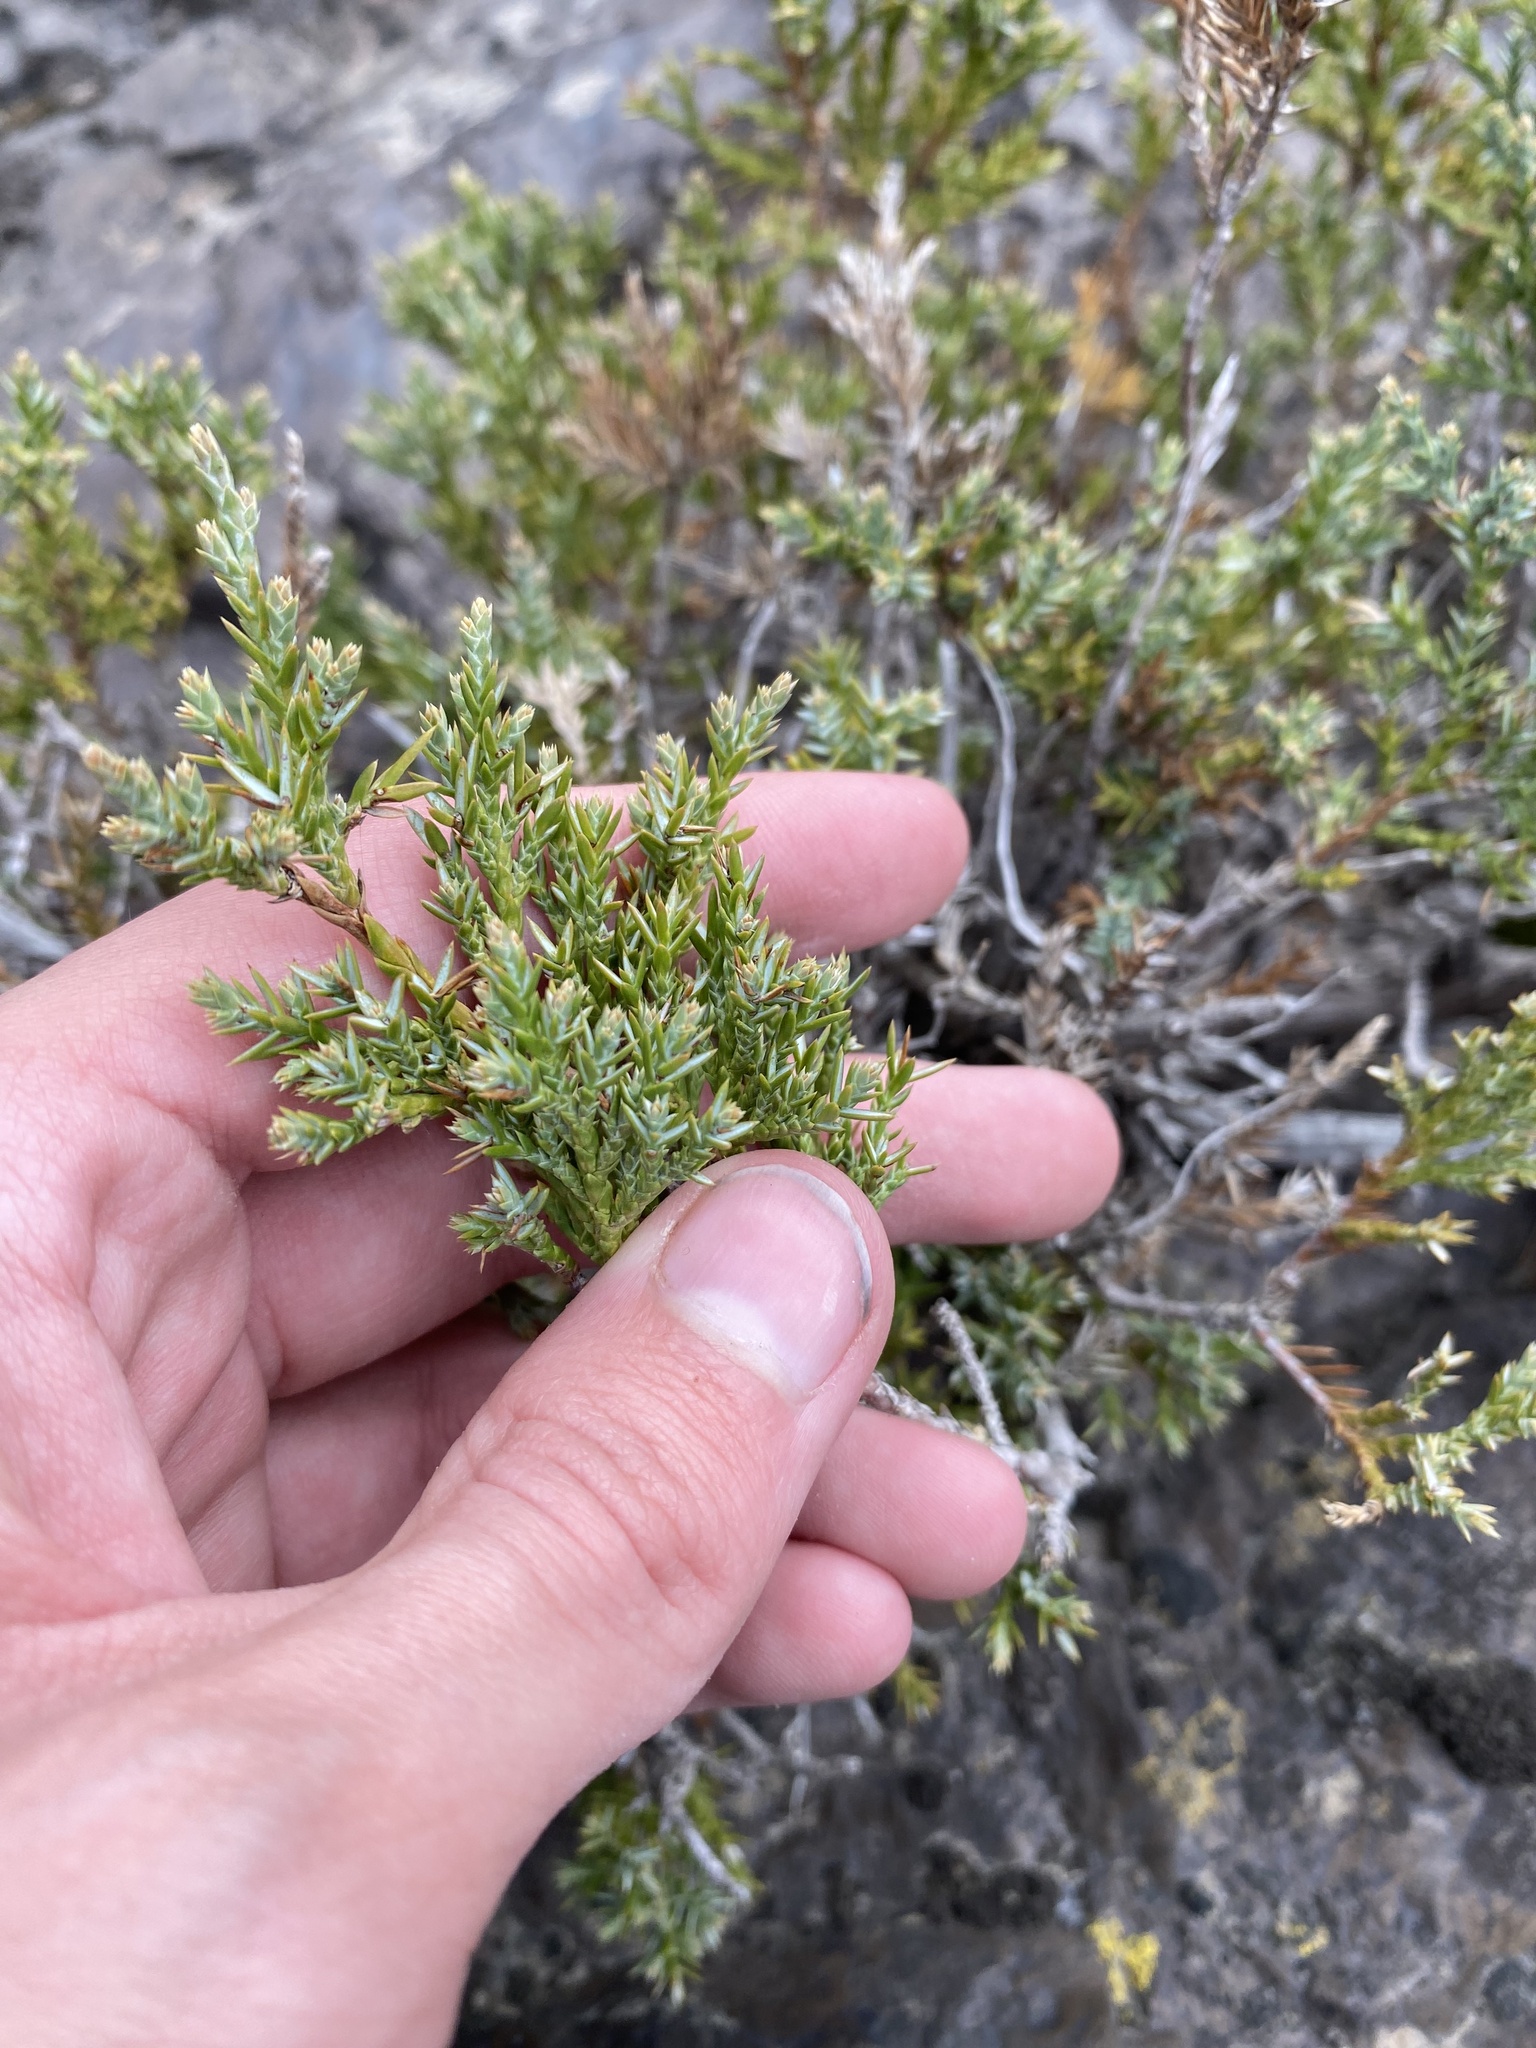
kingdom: Plantae
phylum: Tracheophyta
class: Pinopsida
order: Pinales
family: Cupressaceae
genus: Juniperus
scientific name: Juniperus communis
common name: Common juniper
